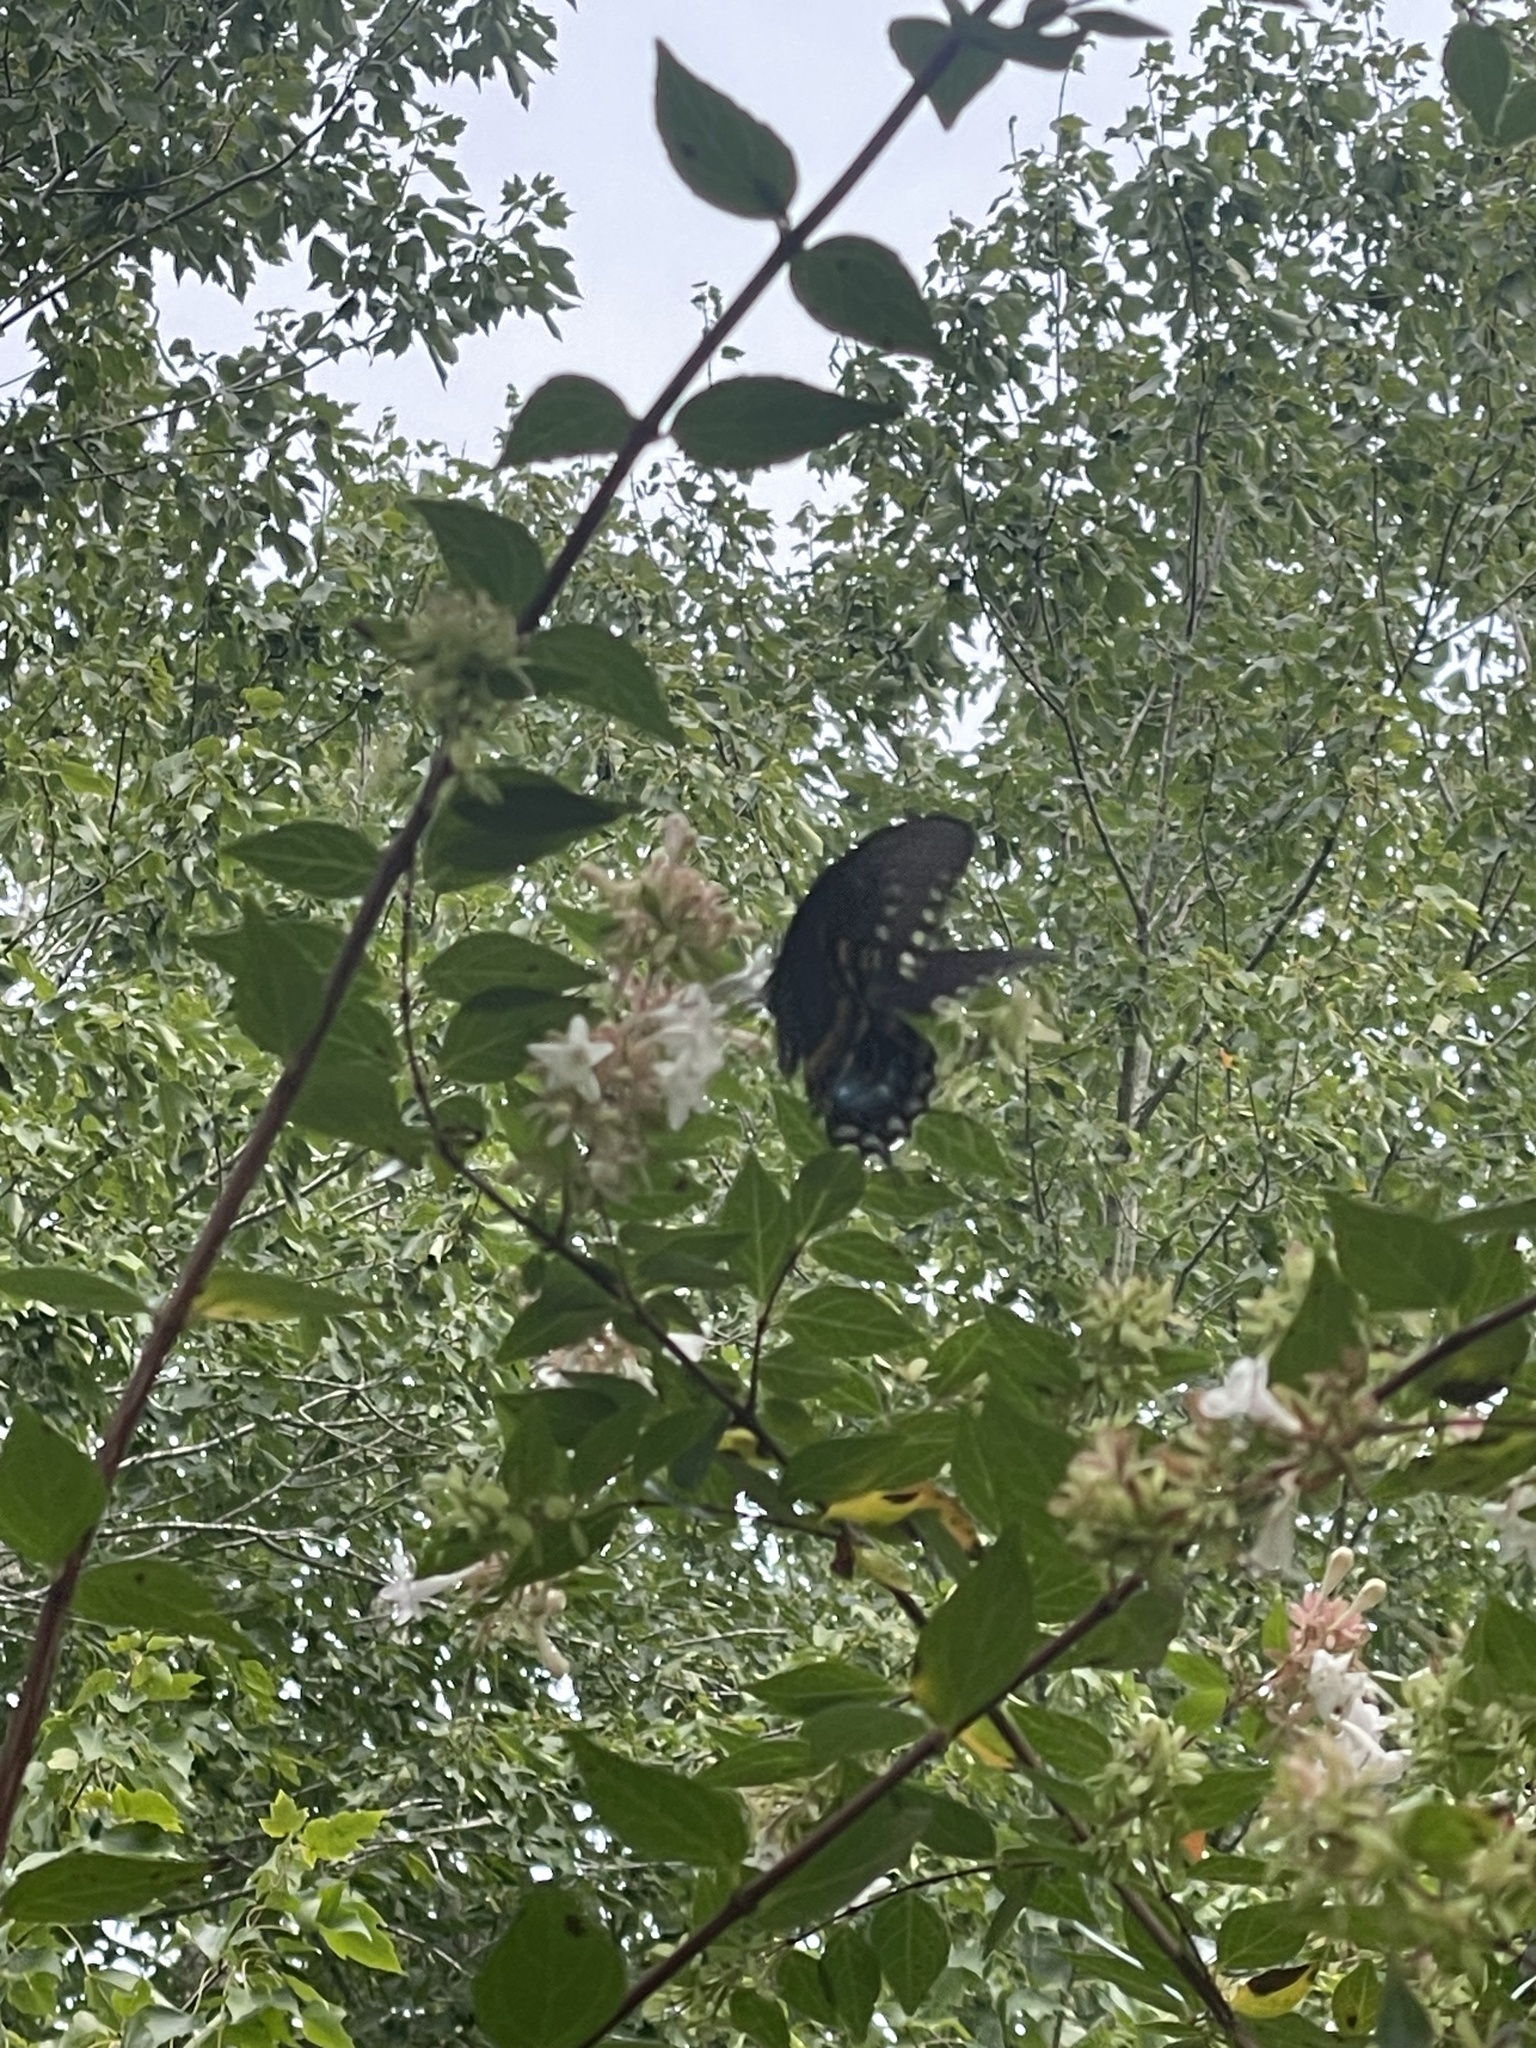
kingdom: Animalia
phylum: Arthropoda
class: Insecta
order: Lepidoptera
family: Papilionidae
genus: Papilio
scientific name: Papilio troilus
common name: Spicebush swallowtail
